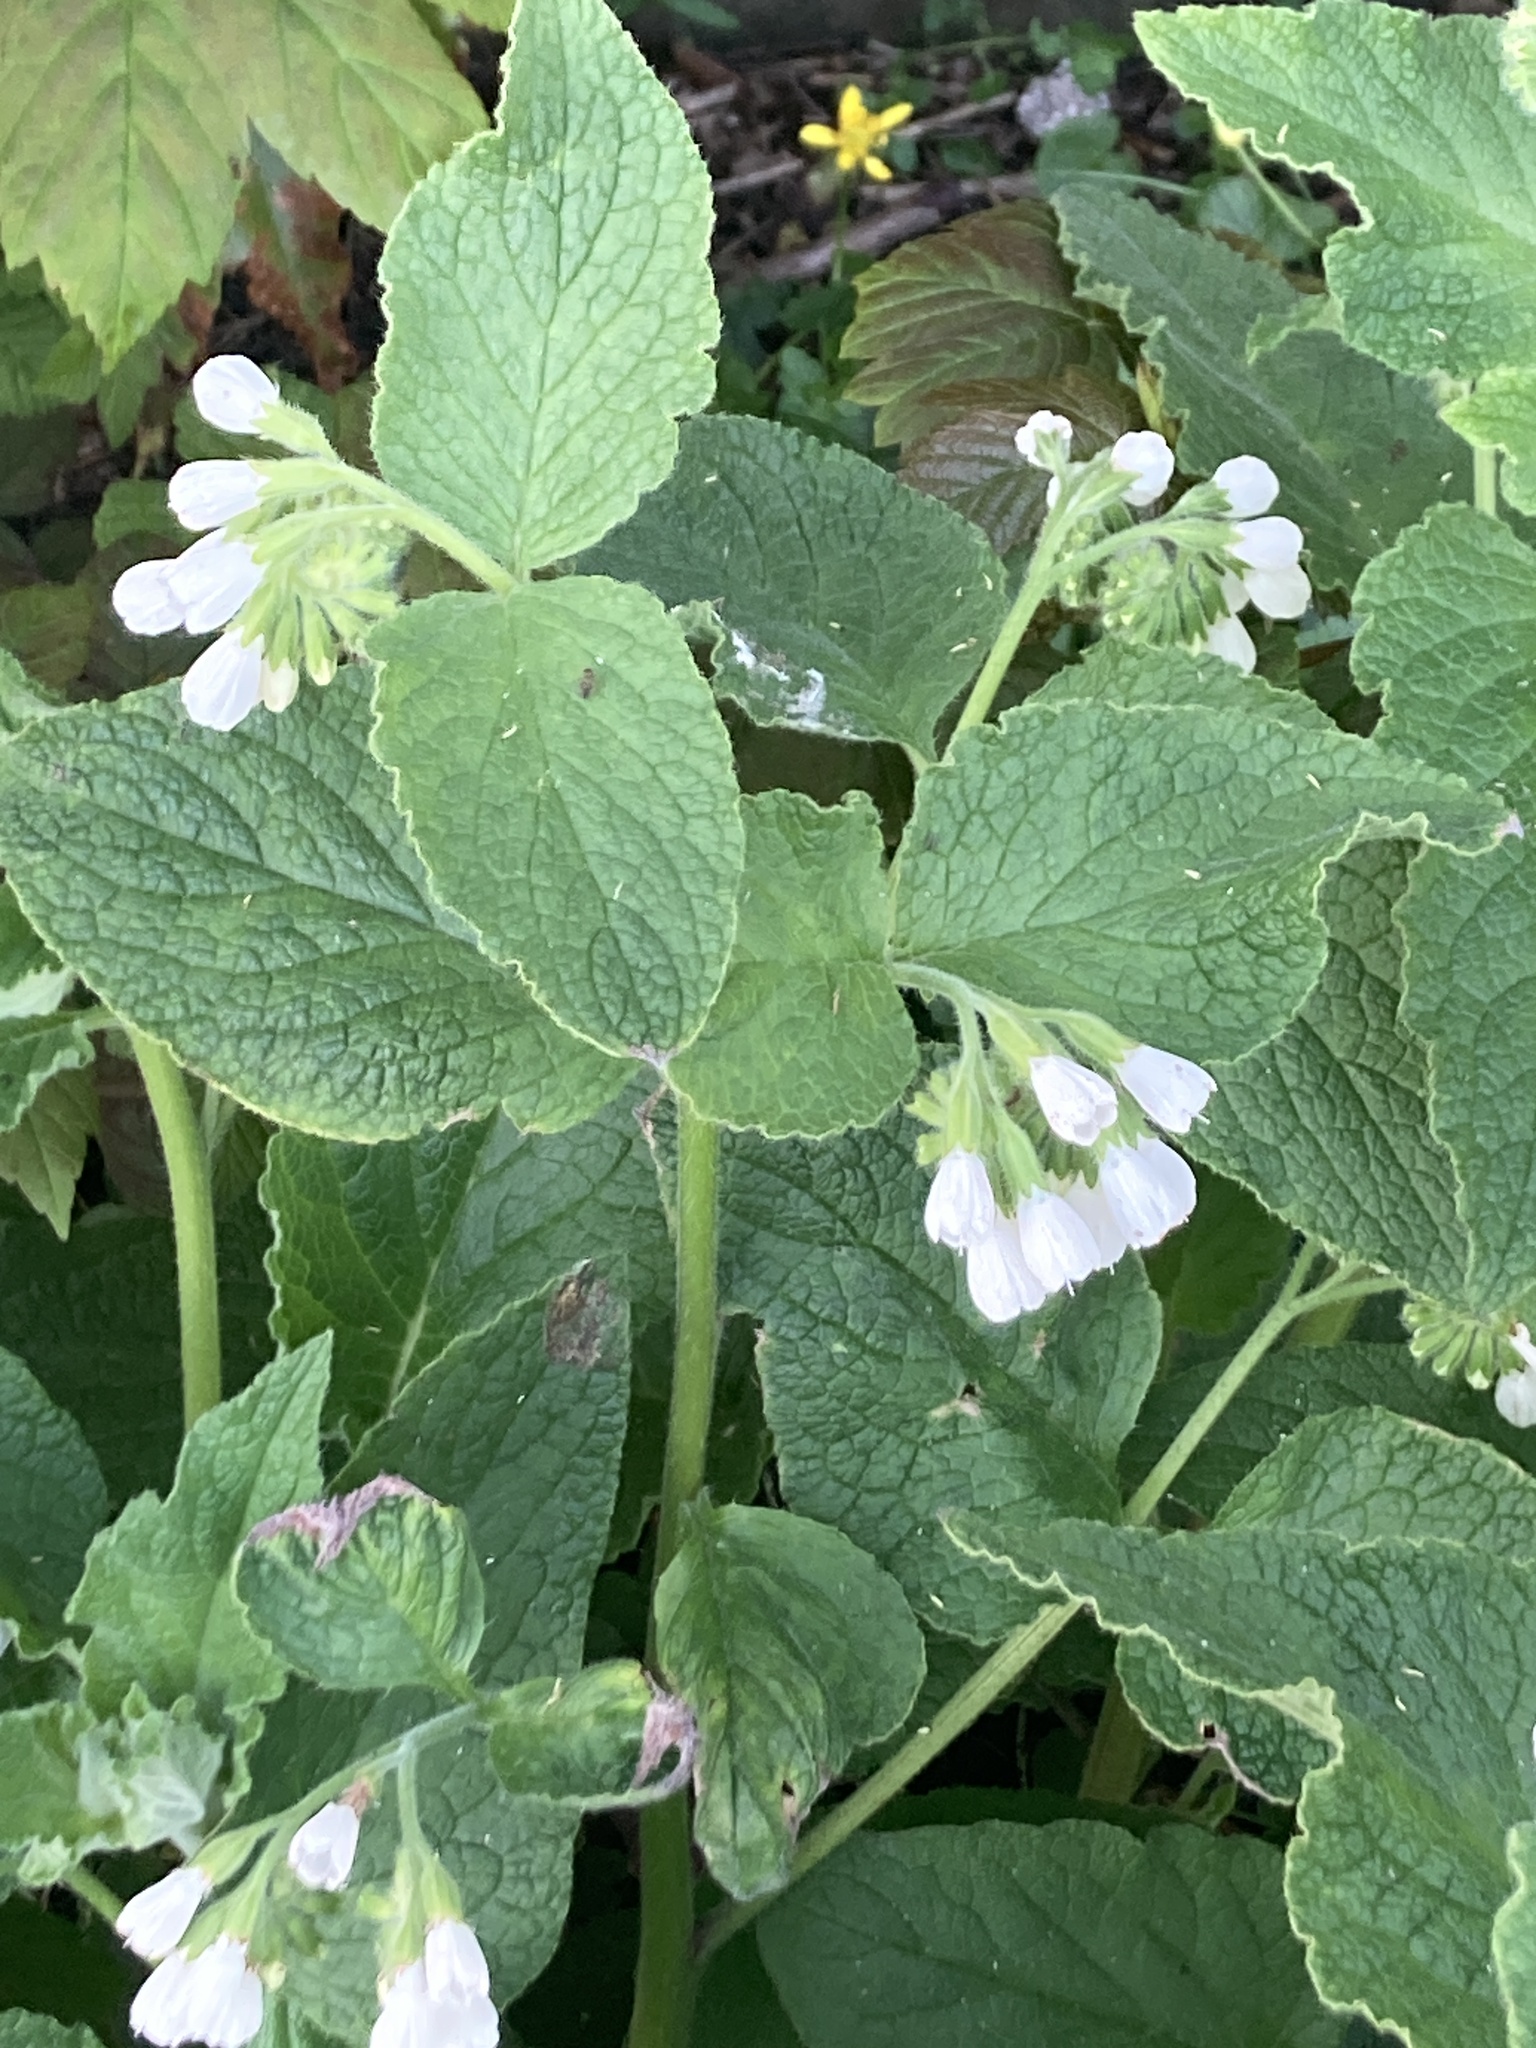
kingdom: Plantae
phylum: Tracheophyta
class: Magnoliopsida
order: Boraginales
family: Boraginaceae
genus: Symphytum
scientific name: Symphytum orientale
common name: White comfrey
